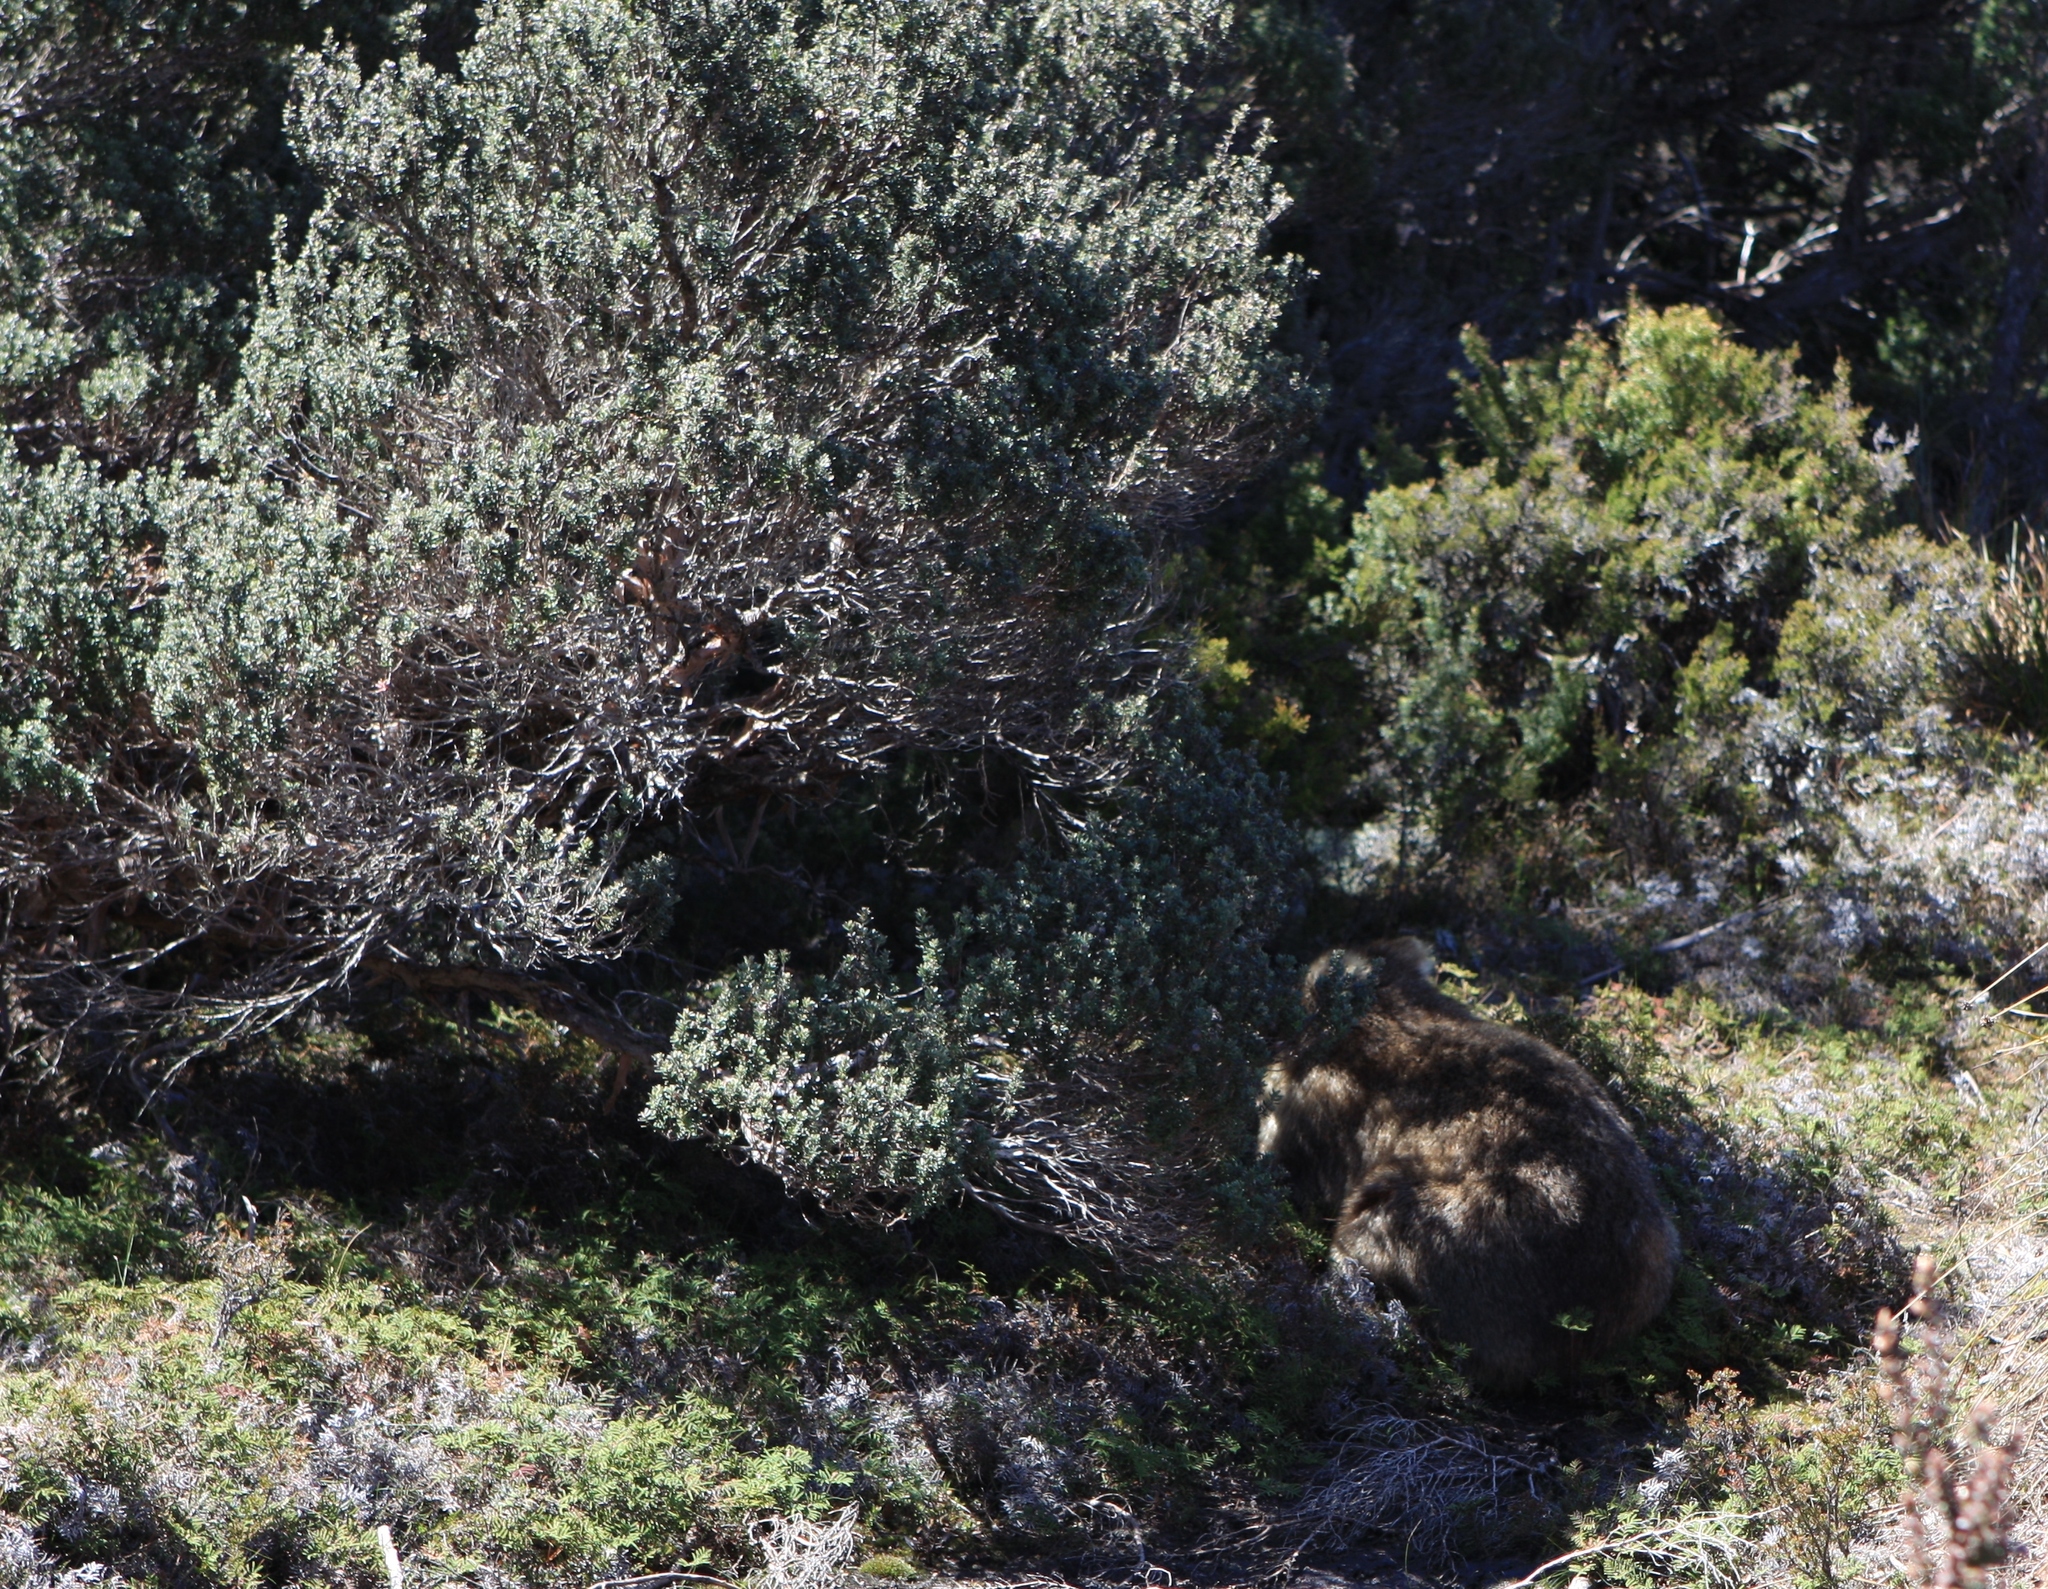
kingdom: Animalia
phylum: Chordata
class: Mammalia
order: Diprotodontia
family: Vombatidae
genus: Vombatus
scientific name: Vombatus ursinus
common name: Common wombat
